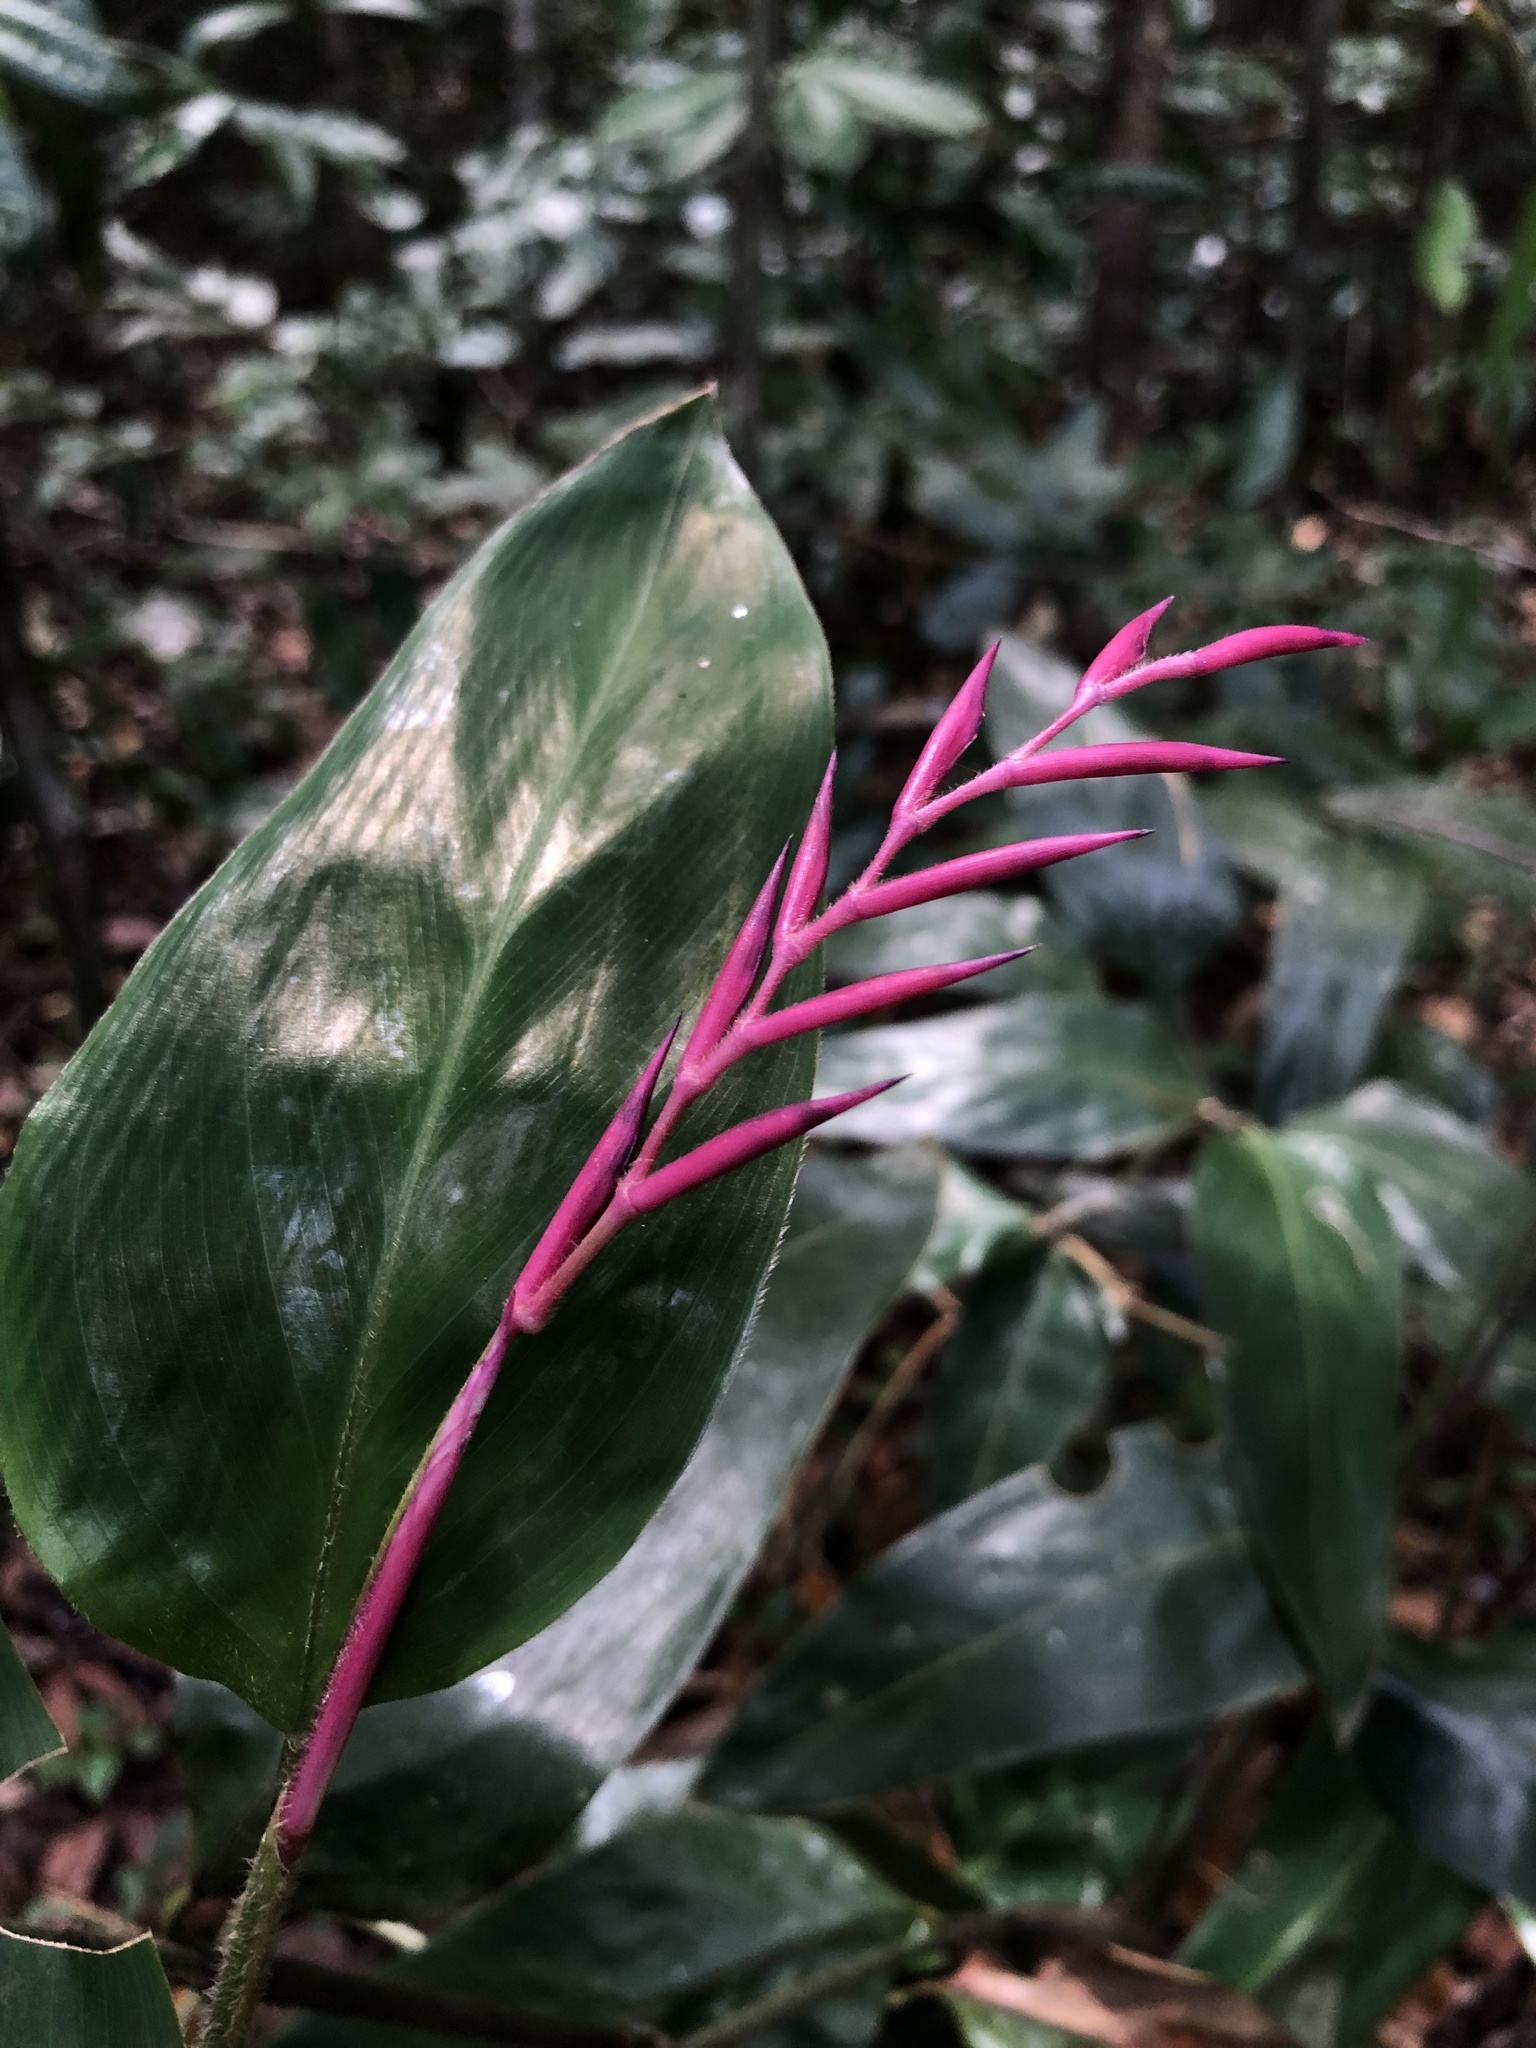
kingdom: Plantae
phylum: Tracheophyta
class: Liliopsida
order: Zingiberales
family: Marantaceae
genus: Stromanthe
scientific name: Stromanthe porteana
